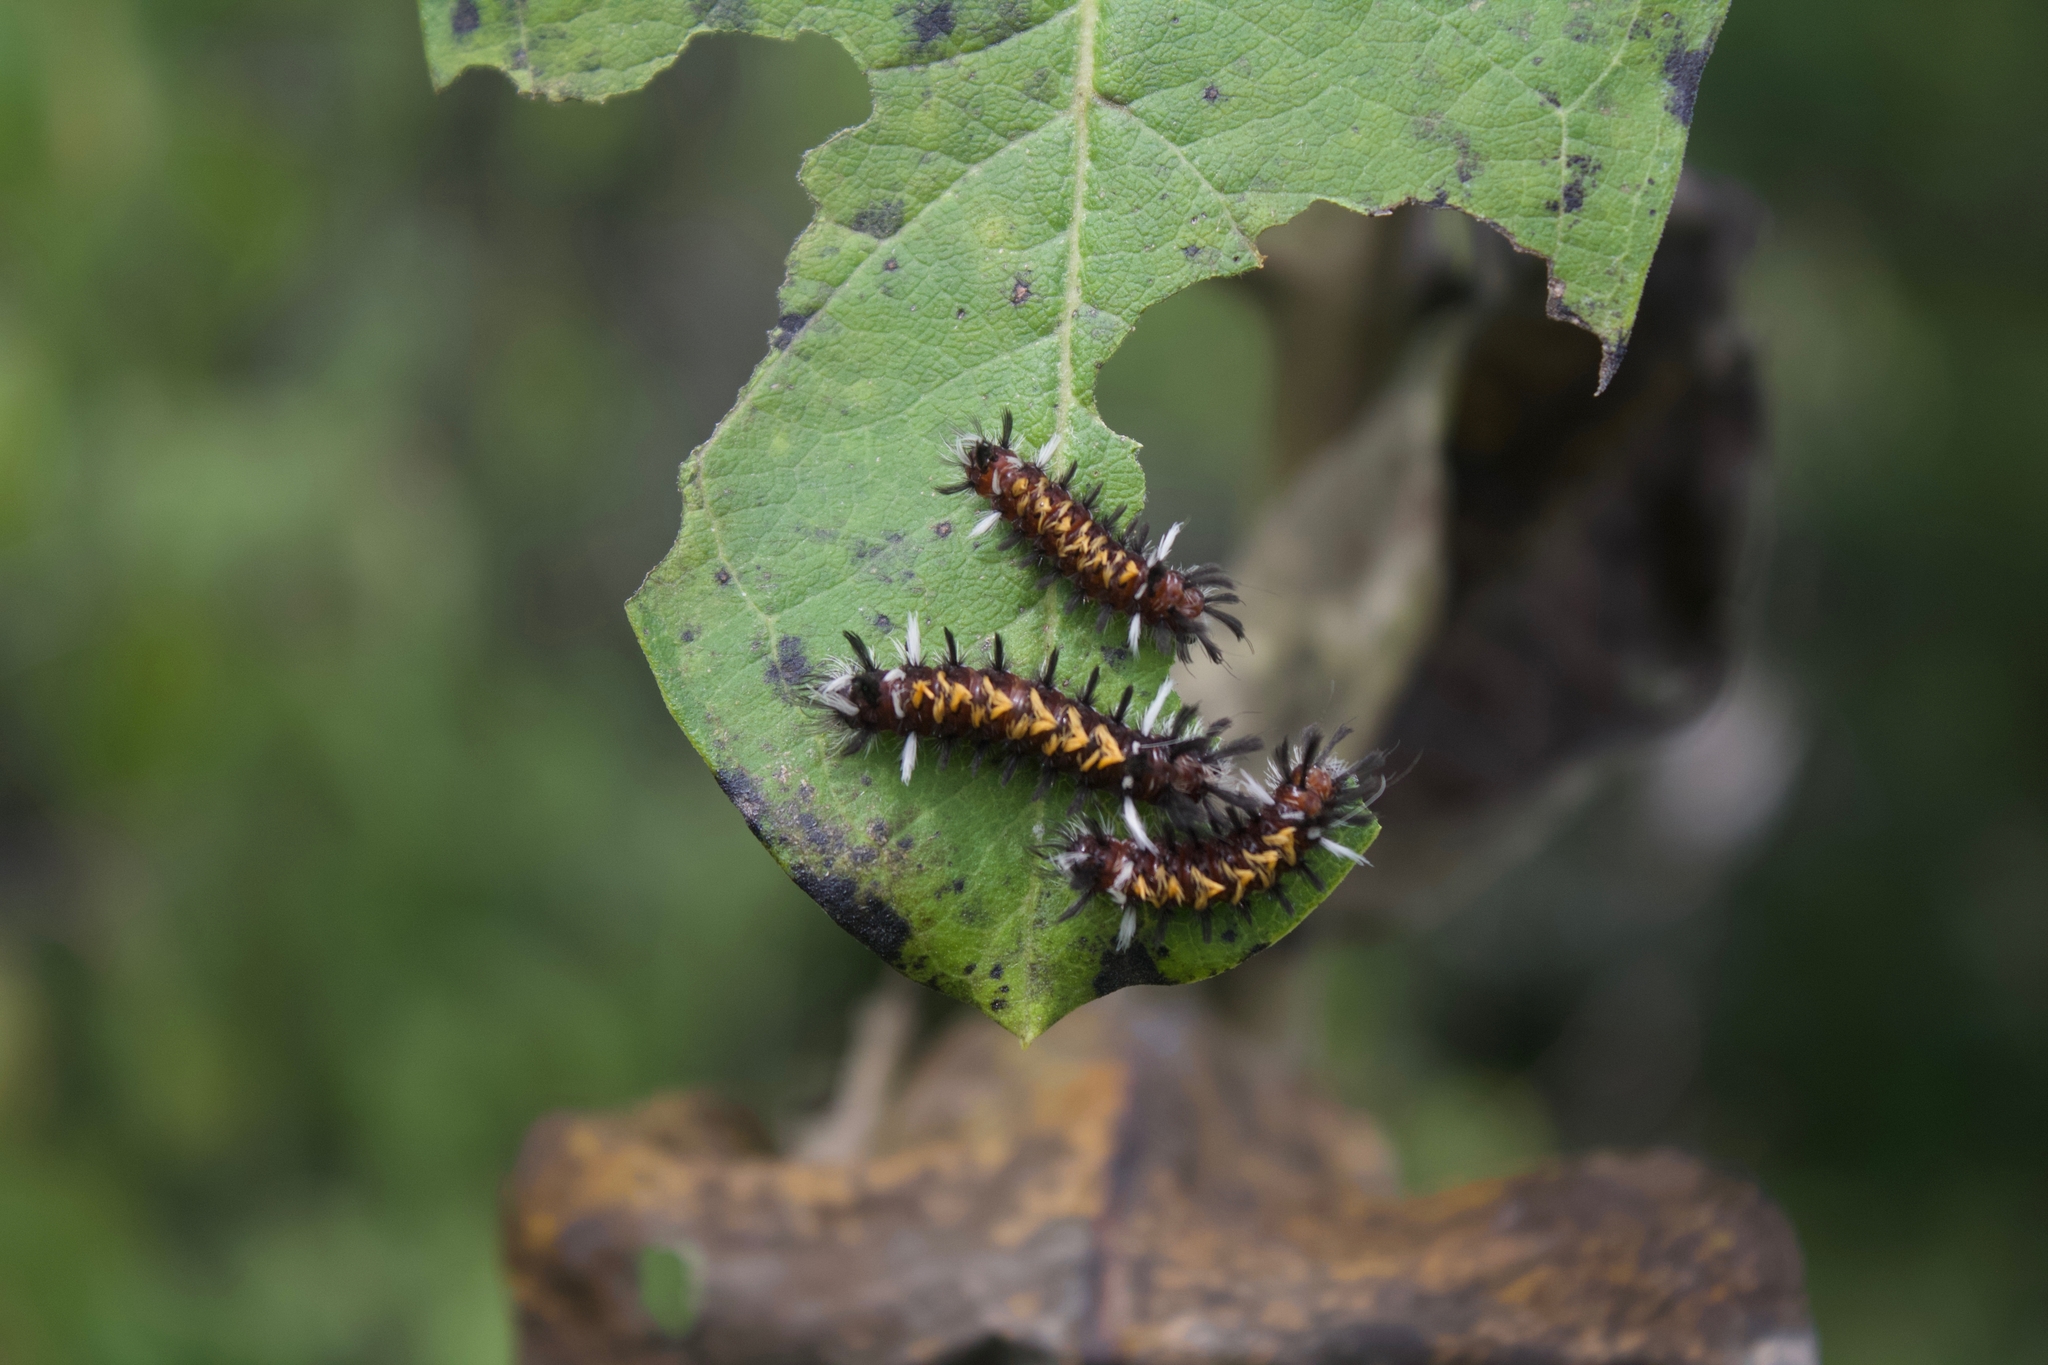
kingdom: Animalia
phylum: Arthropoda
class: Insecta
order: Lepidoptera
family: Erebidae
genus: Euchaetes
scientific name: Euchaetes egle
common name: Milkweed tussock moth
